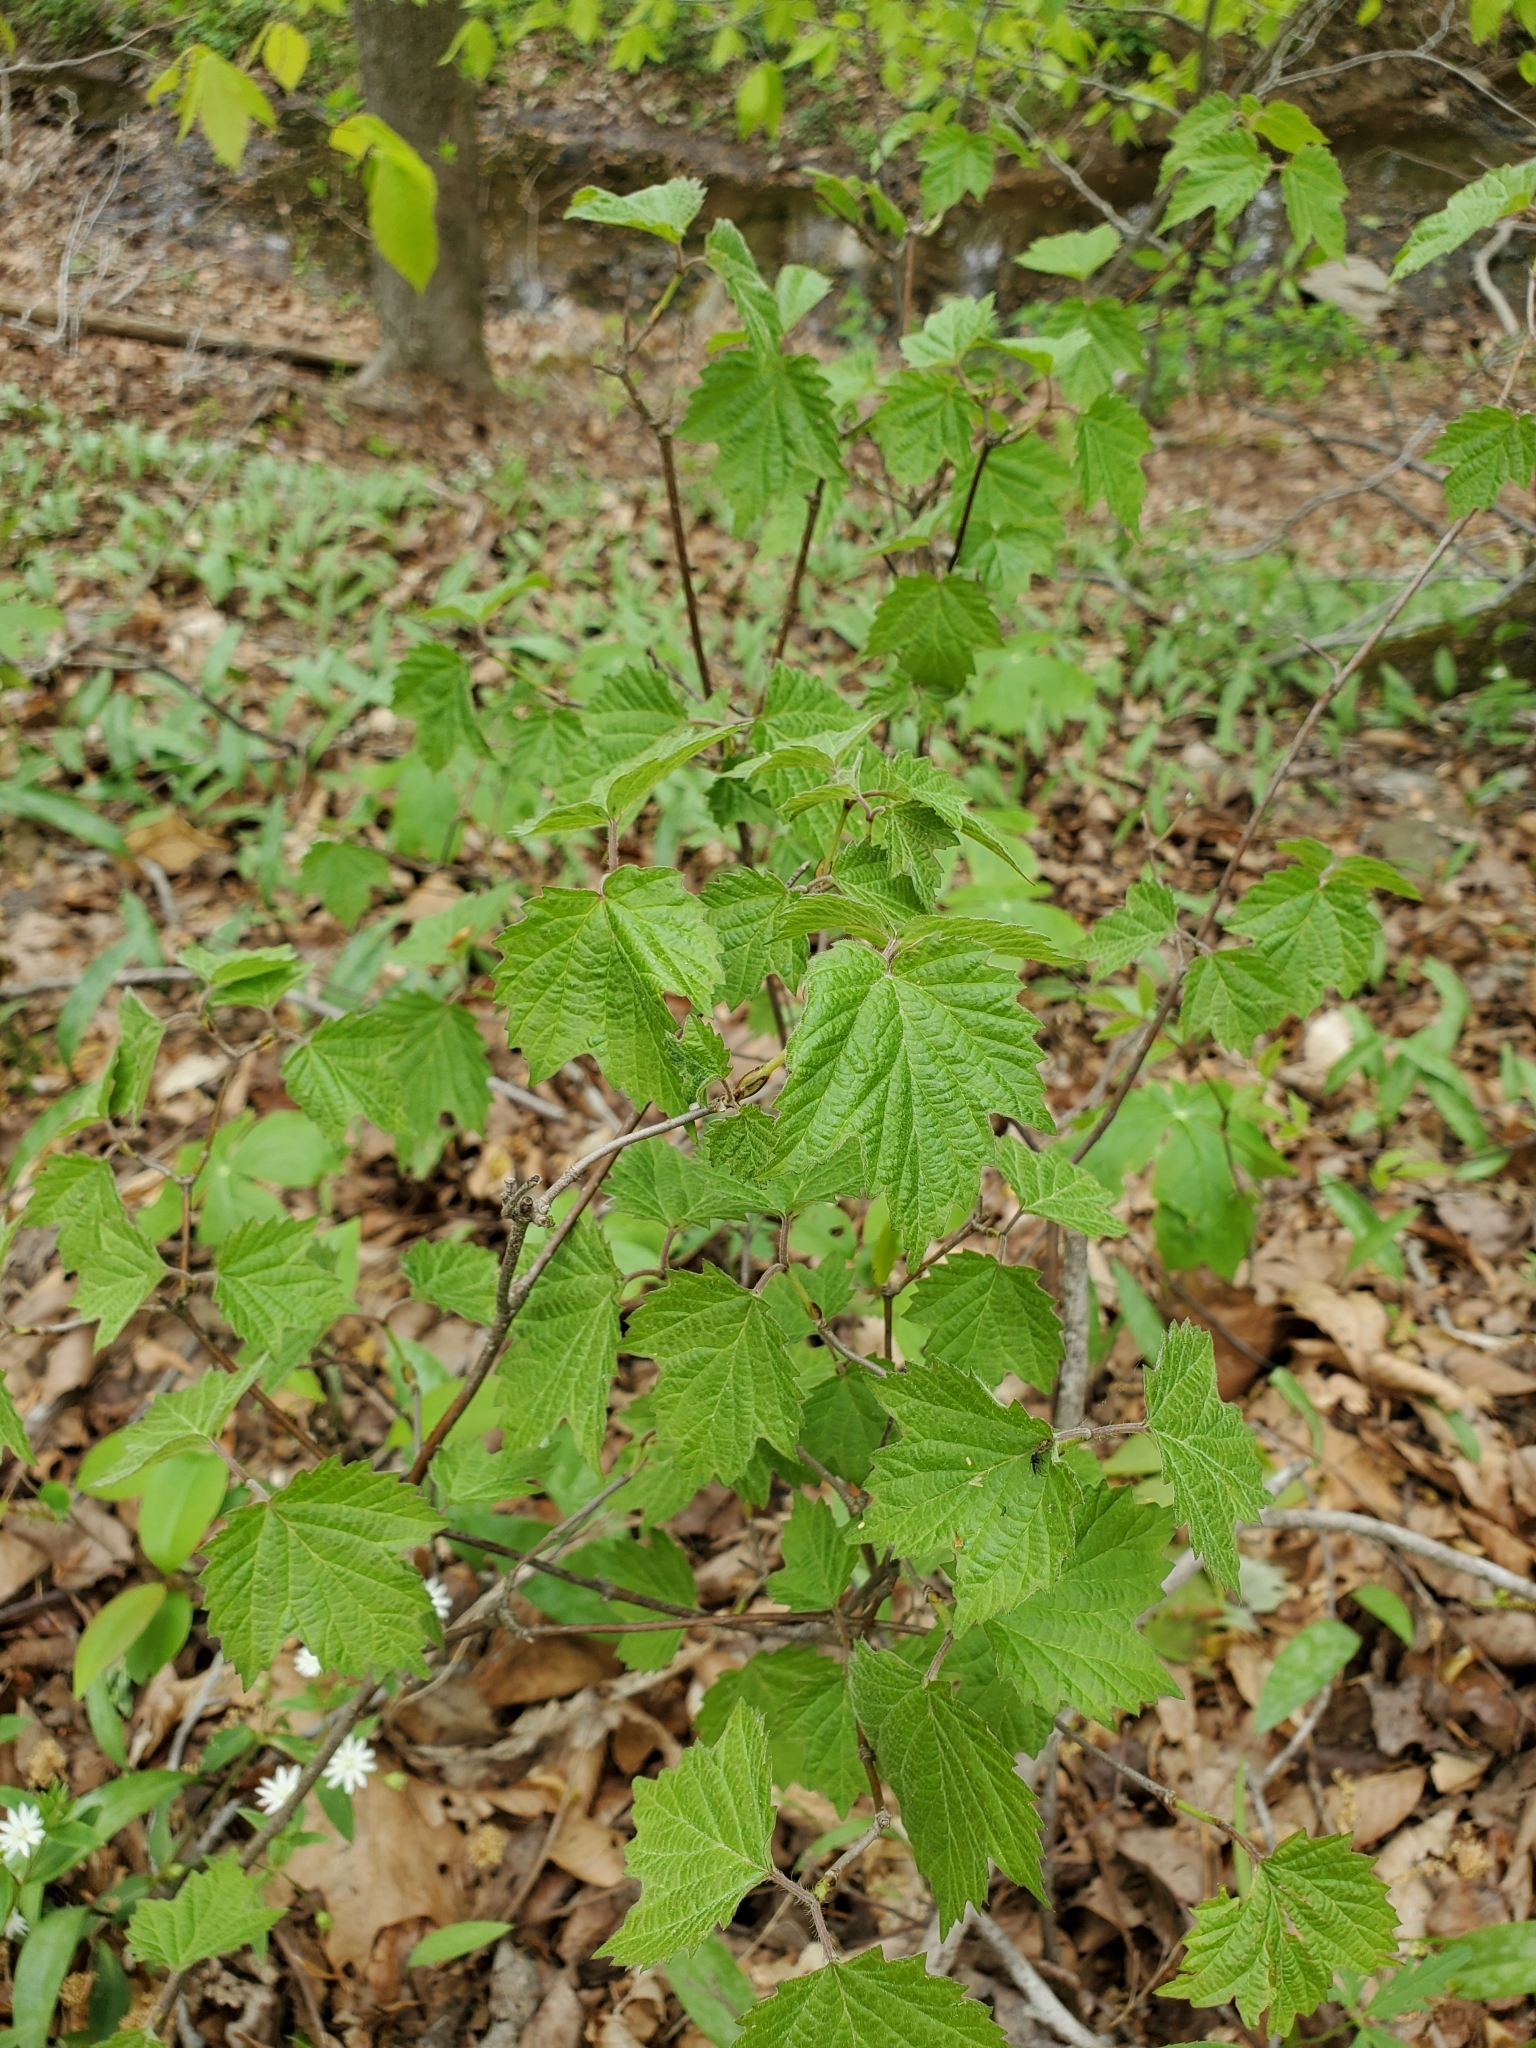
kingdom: Plantae
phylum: Tracheophyta
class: Magnoliopsida
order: Dipsacales
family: Viburnaceae
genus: Viburnum
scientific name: Viburnum acerifolium
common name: Dockmackie
